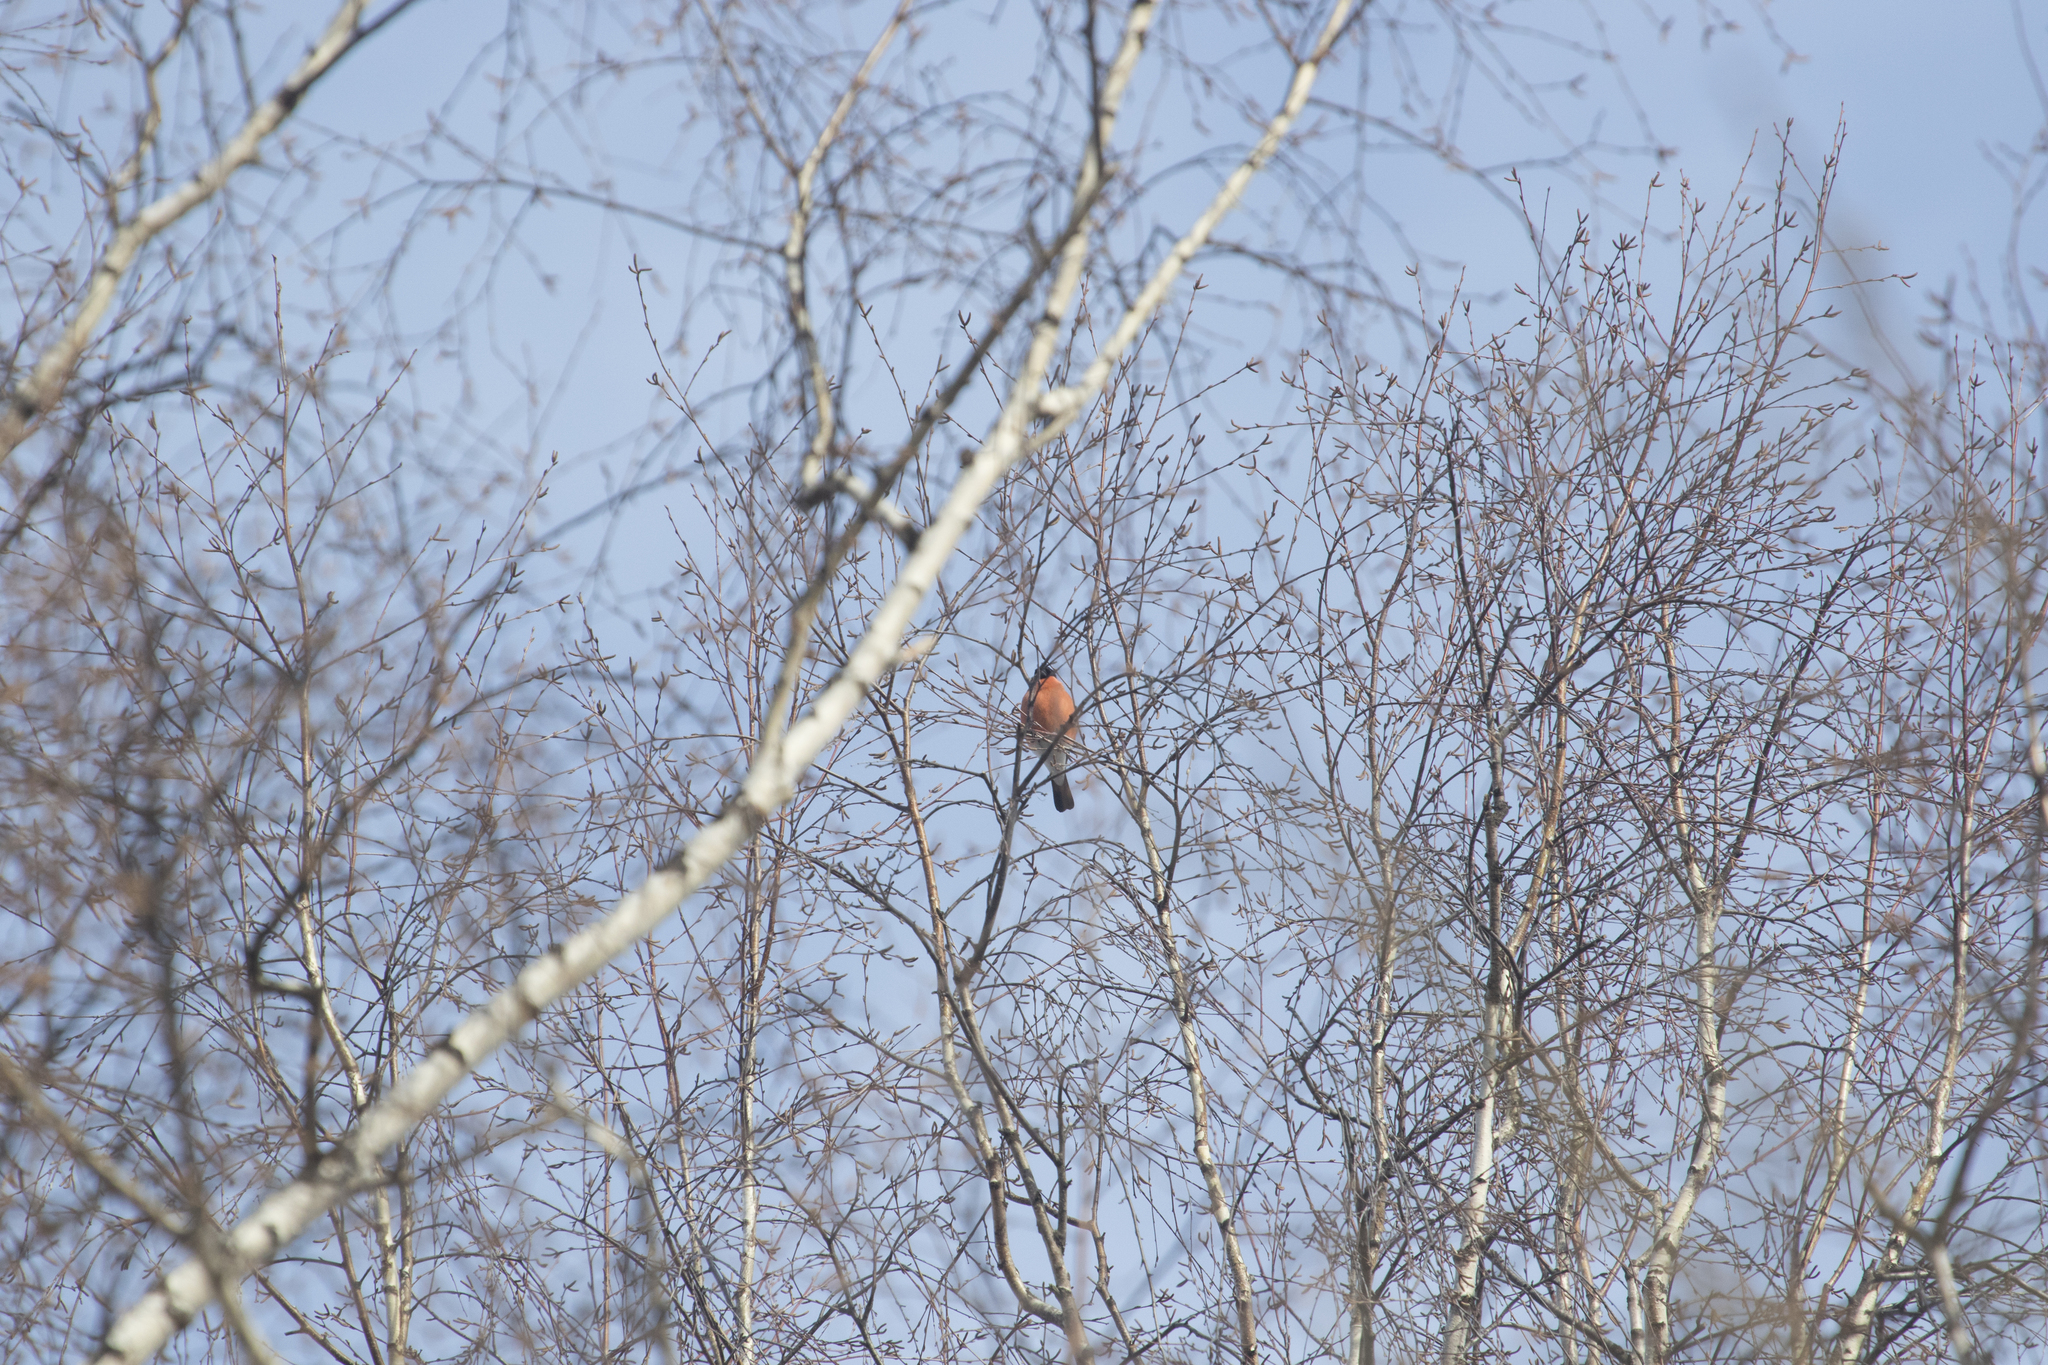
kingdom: Animalia
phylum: Chordata
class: Aves
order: Passeriformes
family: Fringillidae
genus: Pyrrhula
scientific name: Pyrrhula pyrrhula
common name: Eurasian bullfinch
